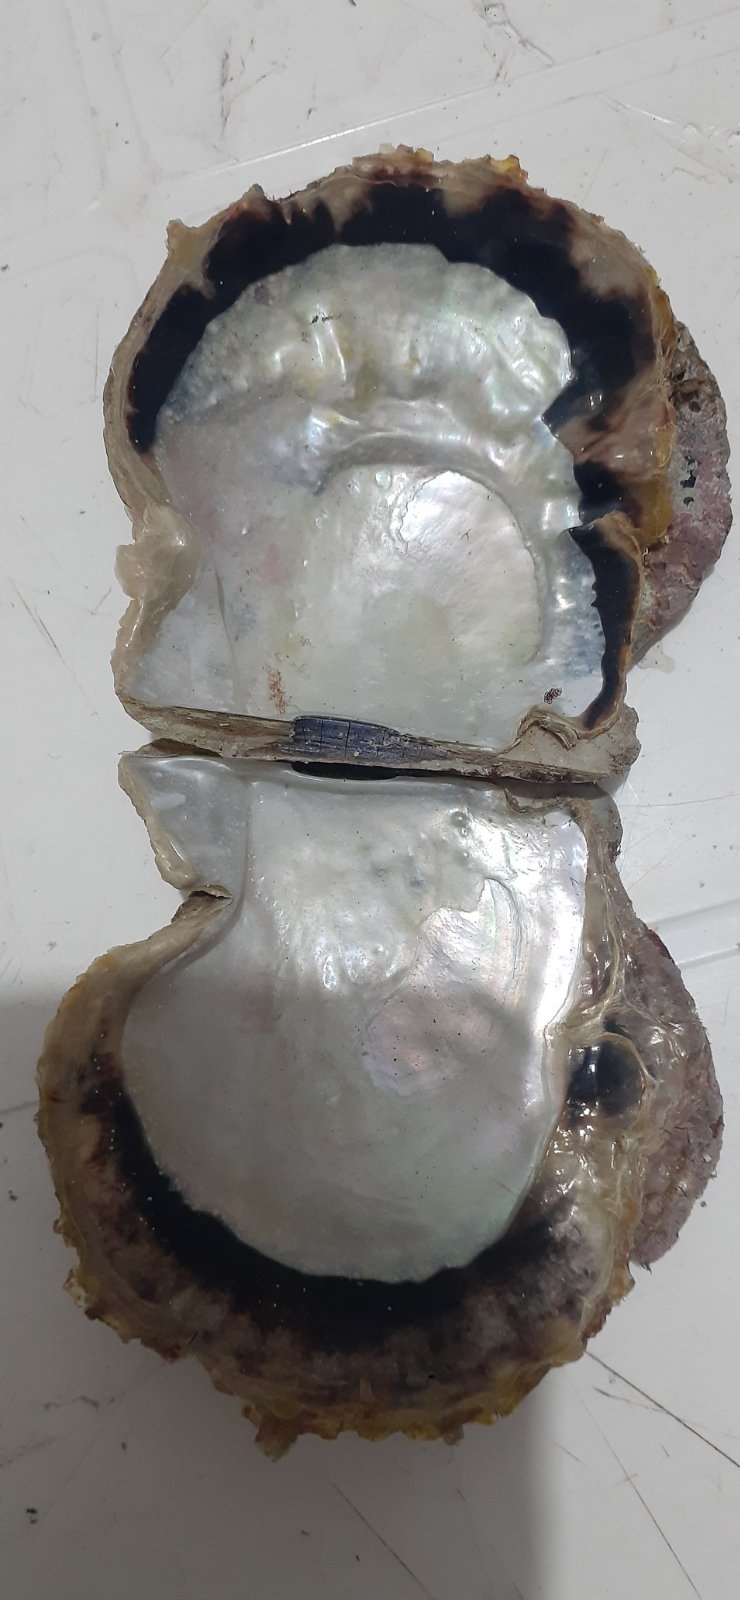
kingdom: Animalia
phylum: Mollusca
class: Bivalvia
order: Ostreida
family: Margaritidae
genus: Pinctada
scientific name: Pinctada radiata
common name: Rayed pearl oyster
